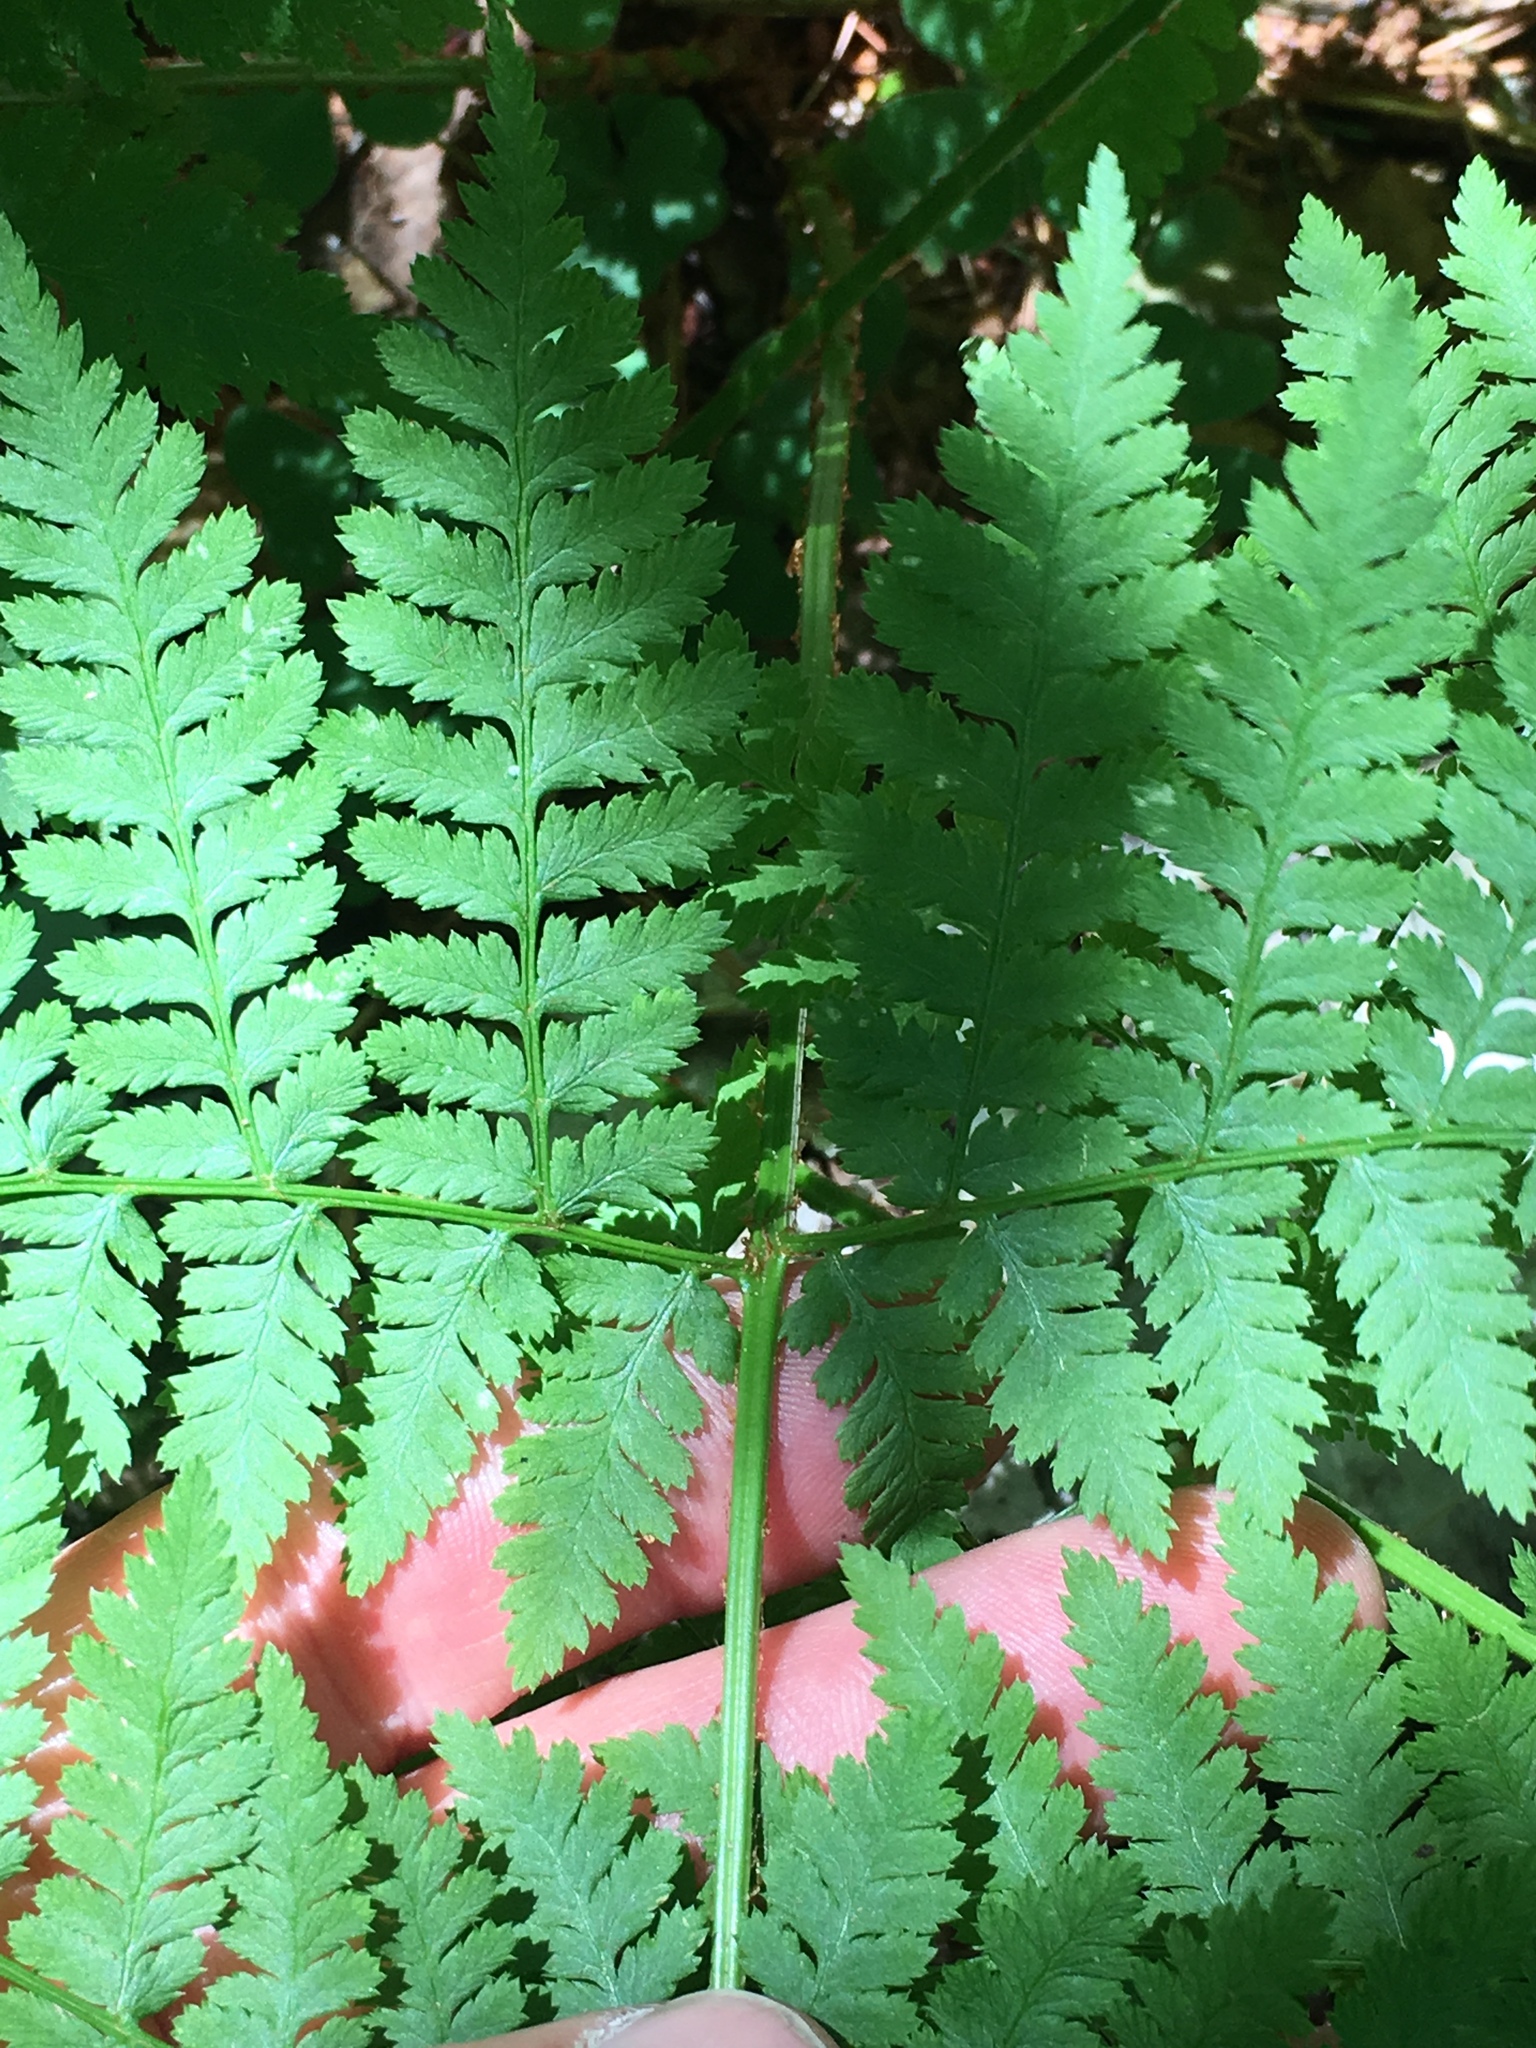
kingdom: Plantae
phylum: Tracheophyta
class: Polypodiopsida
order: Polypodiales
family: Dryopteridaceae
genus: Dryopteris
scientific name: Dryopteris expansa
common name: Northern buckler fern
